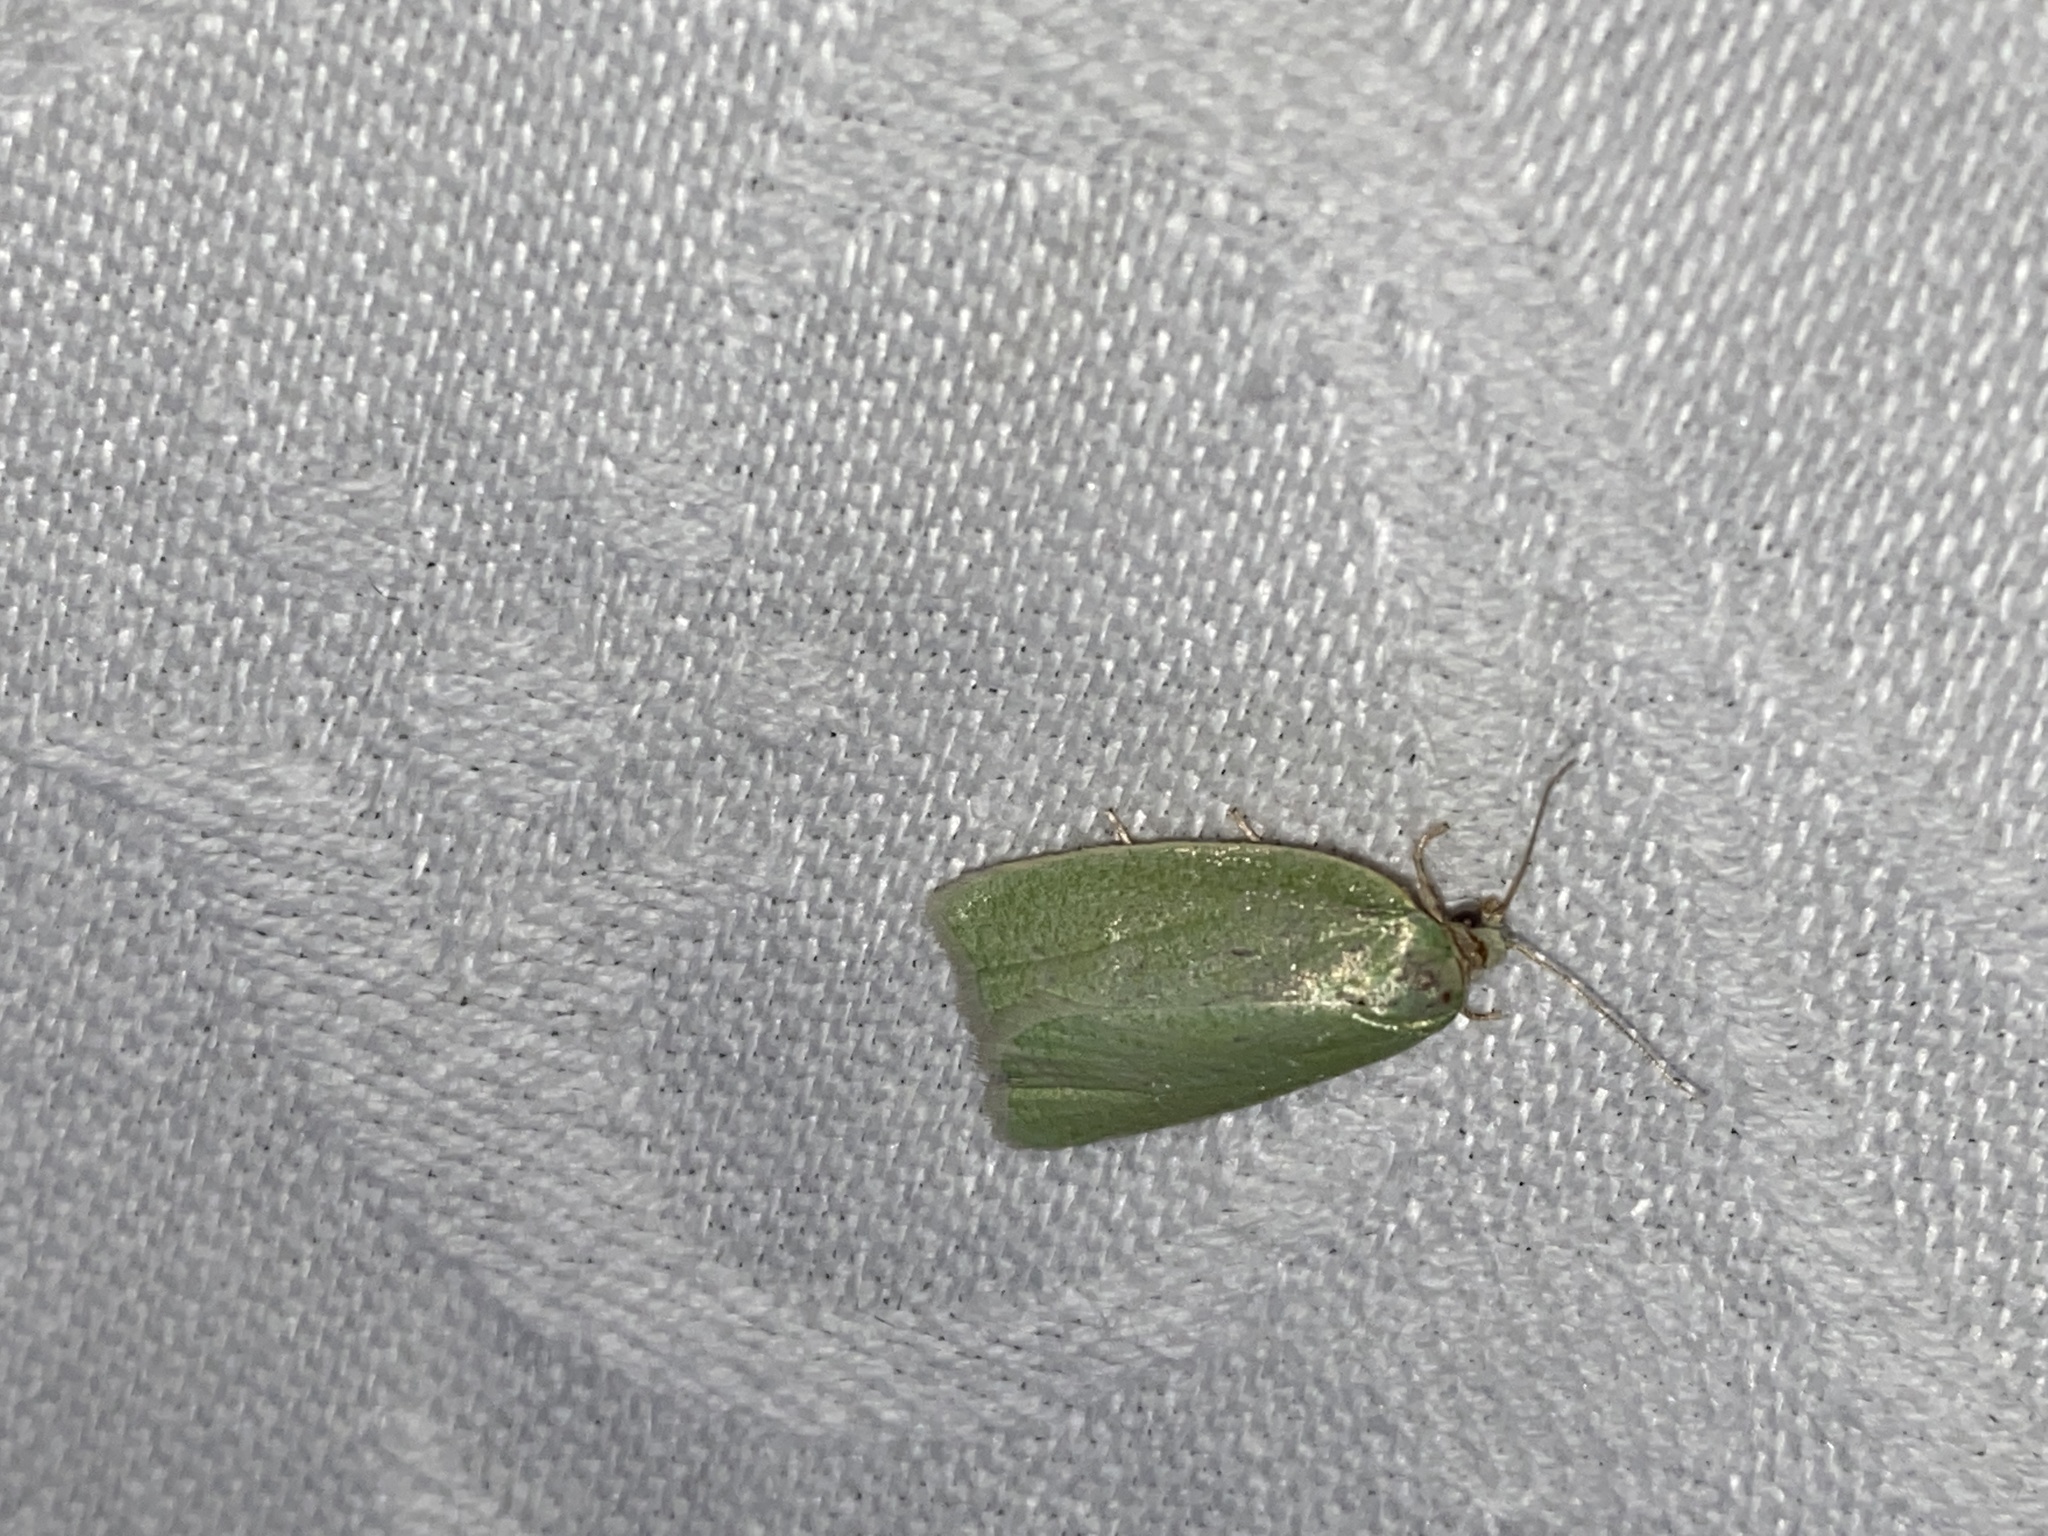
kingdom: Animalia
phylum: Arthropoda
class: Insecta
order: Lepidoptera
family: Tortricidae
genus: Tortrix
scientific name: Tortrix viridana
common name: Green oak tortrix
